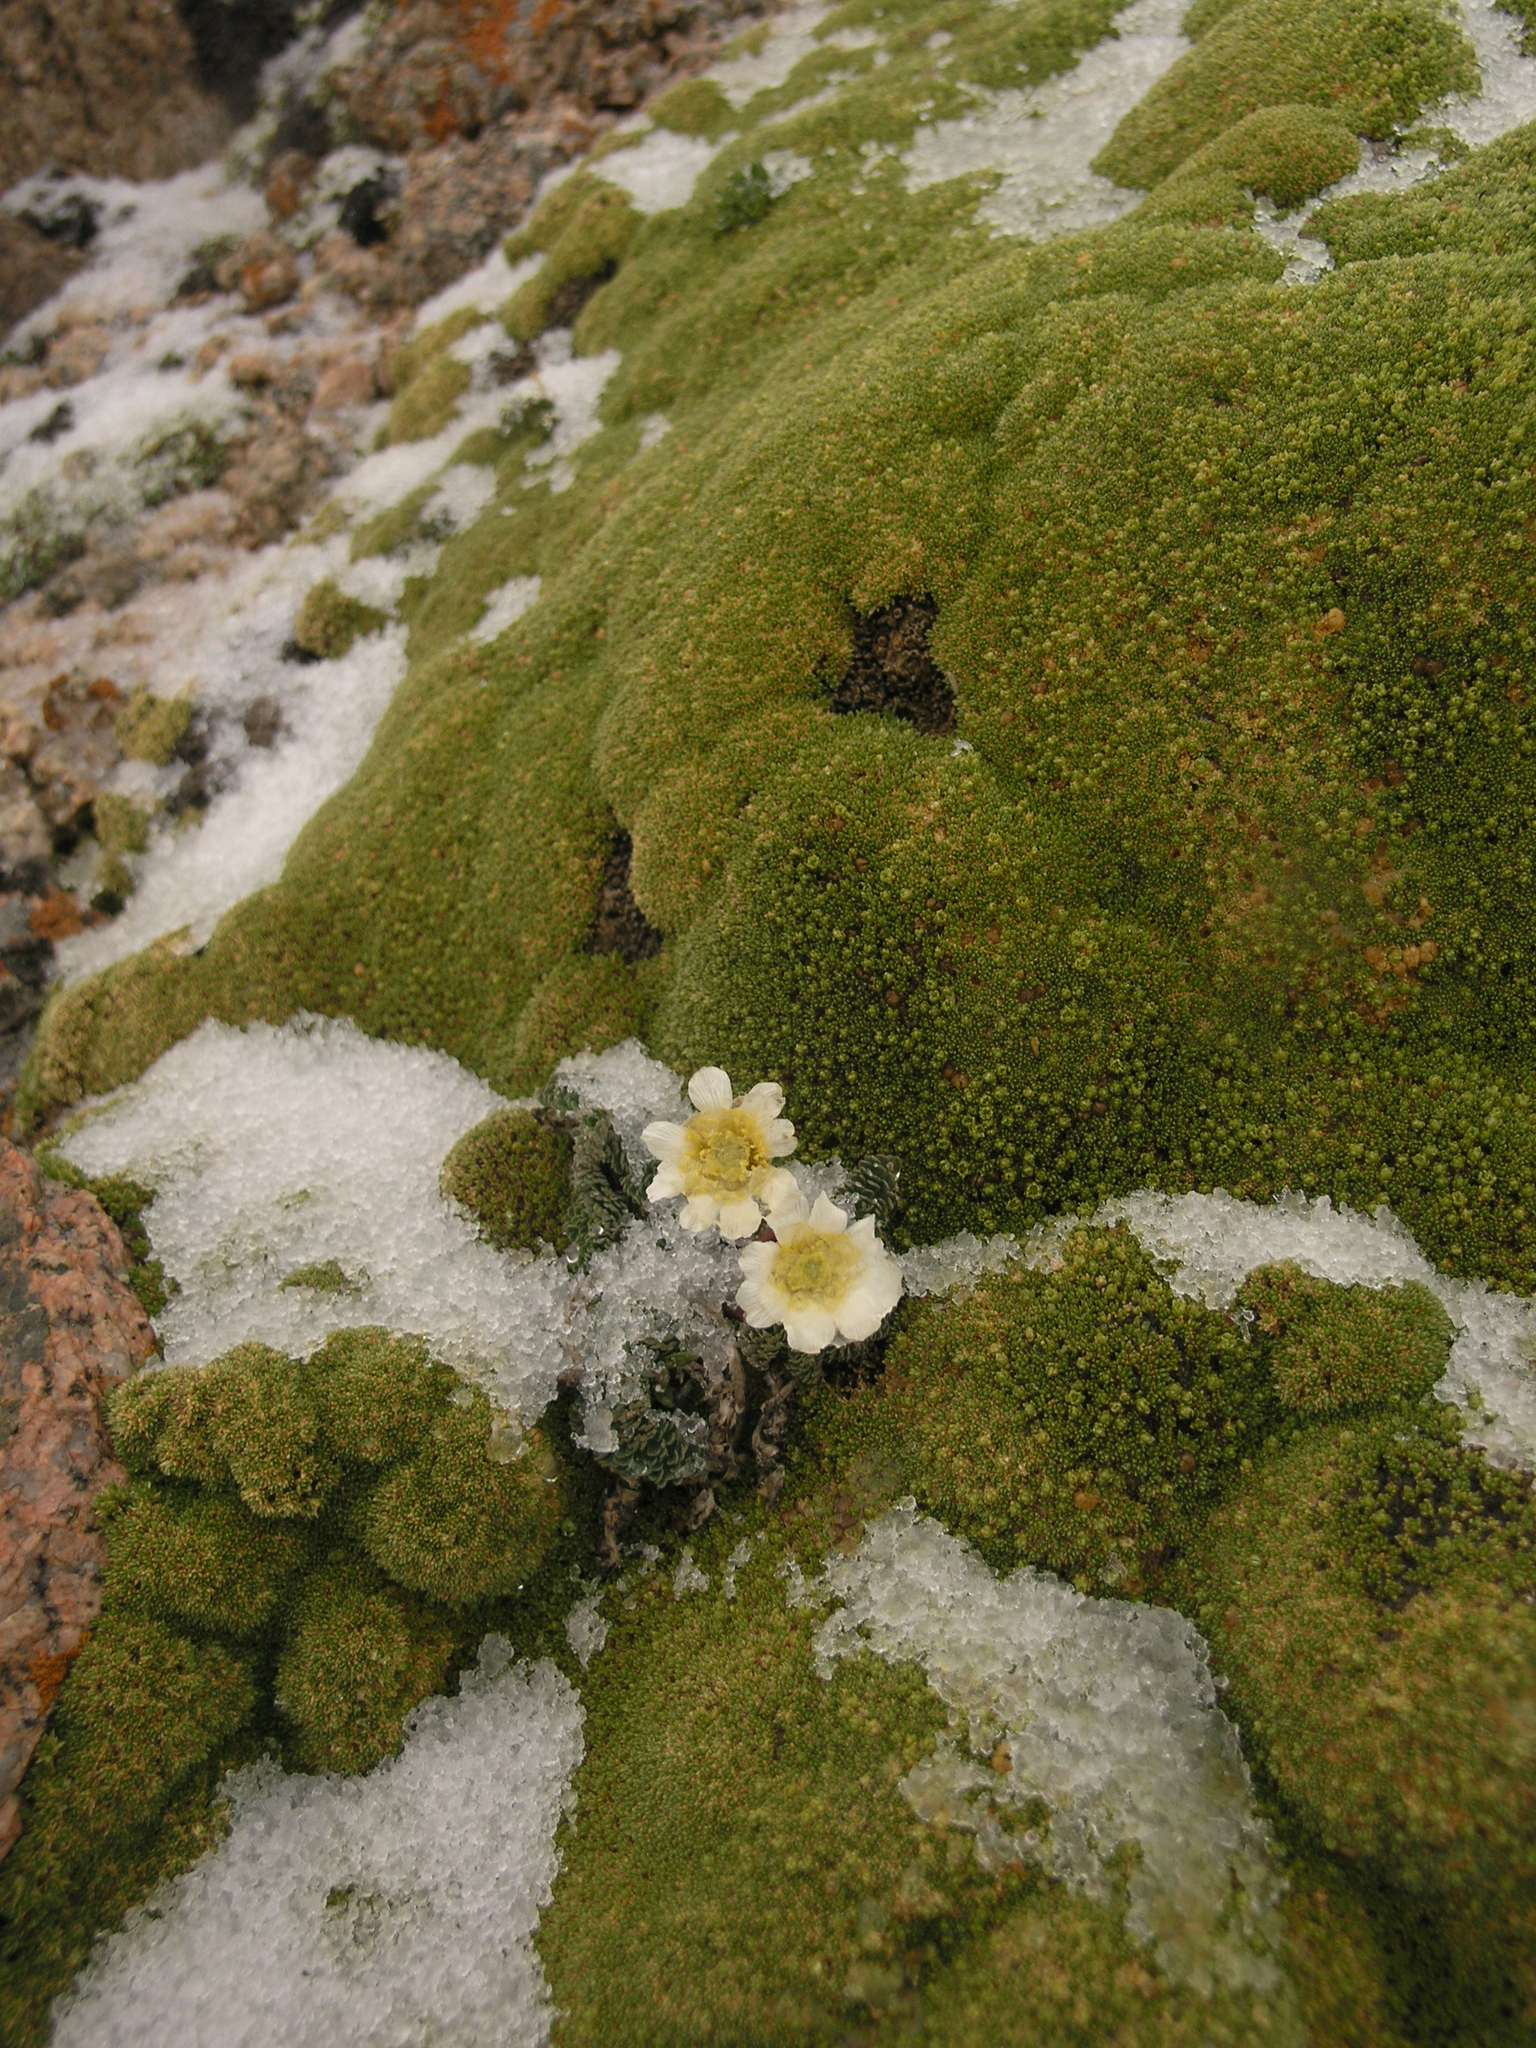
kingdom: Plantae
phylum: Tracheophyta
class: Magnoliopsida
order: Ranunculales
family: Ranunculaceae
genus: Callianthemum
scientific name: Callianthemum alatavicum
